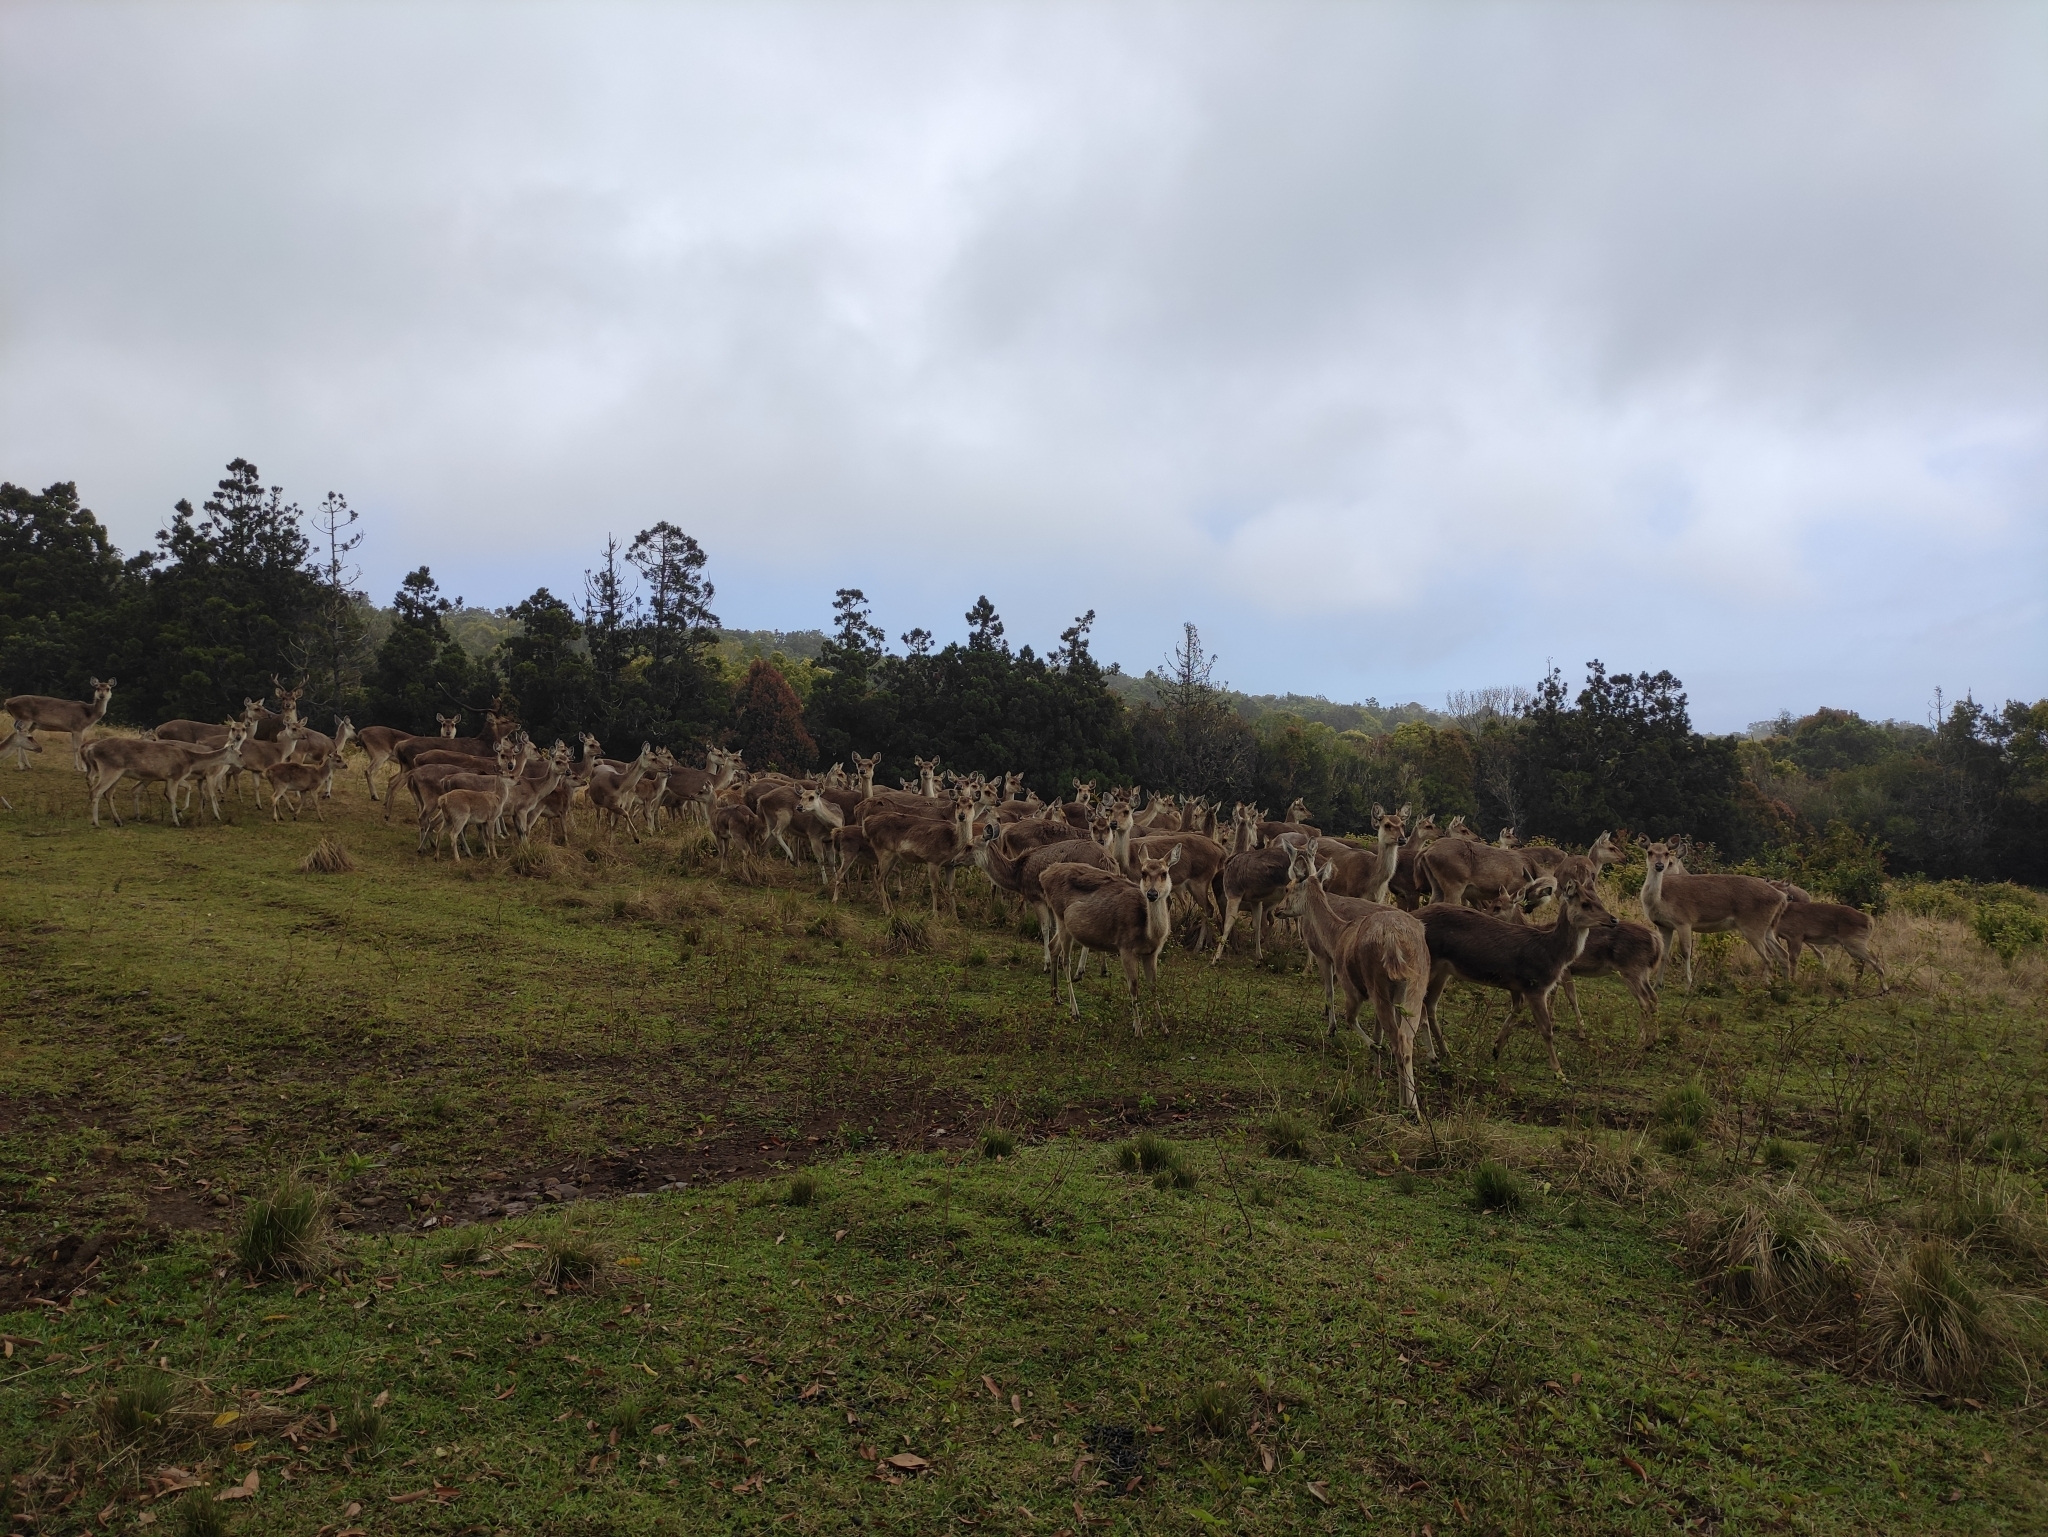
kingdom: Animalia
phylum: Chordata
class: Mammalia
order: Artiodactyla
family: Cervidae
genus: Rusa
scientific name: Rusa timorensis
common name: Javan rusa
